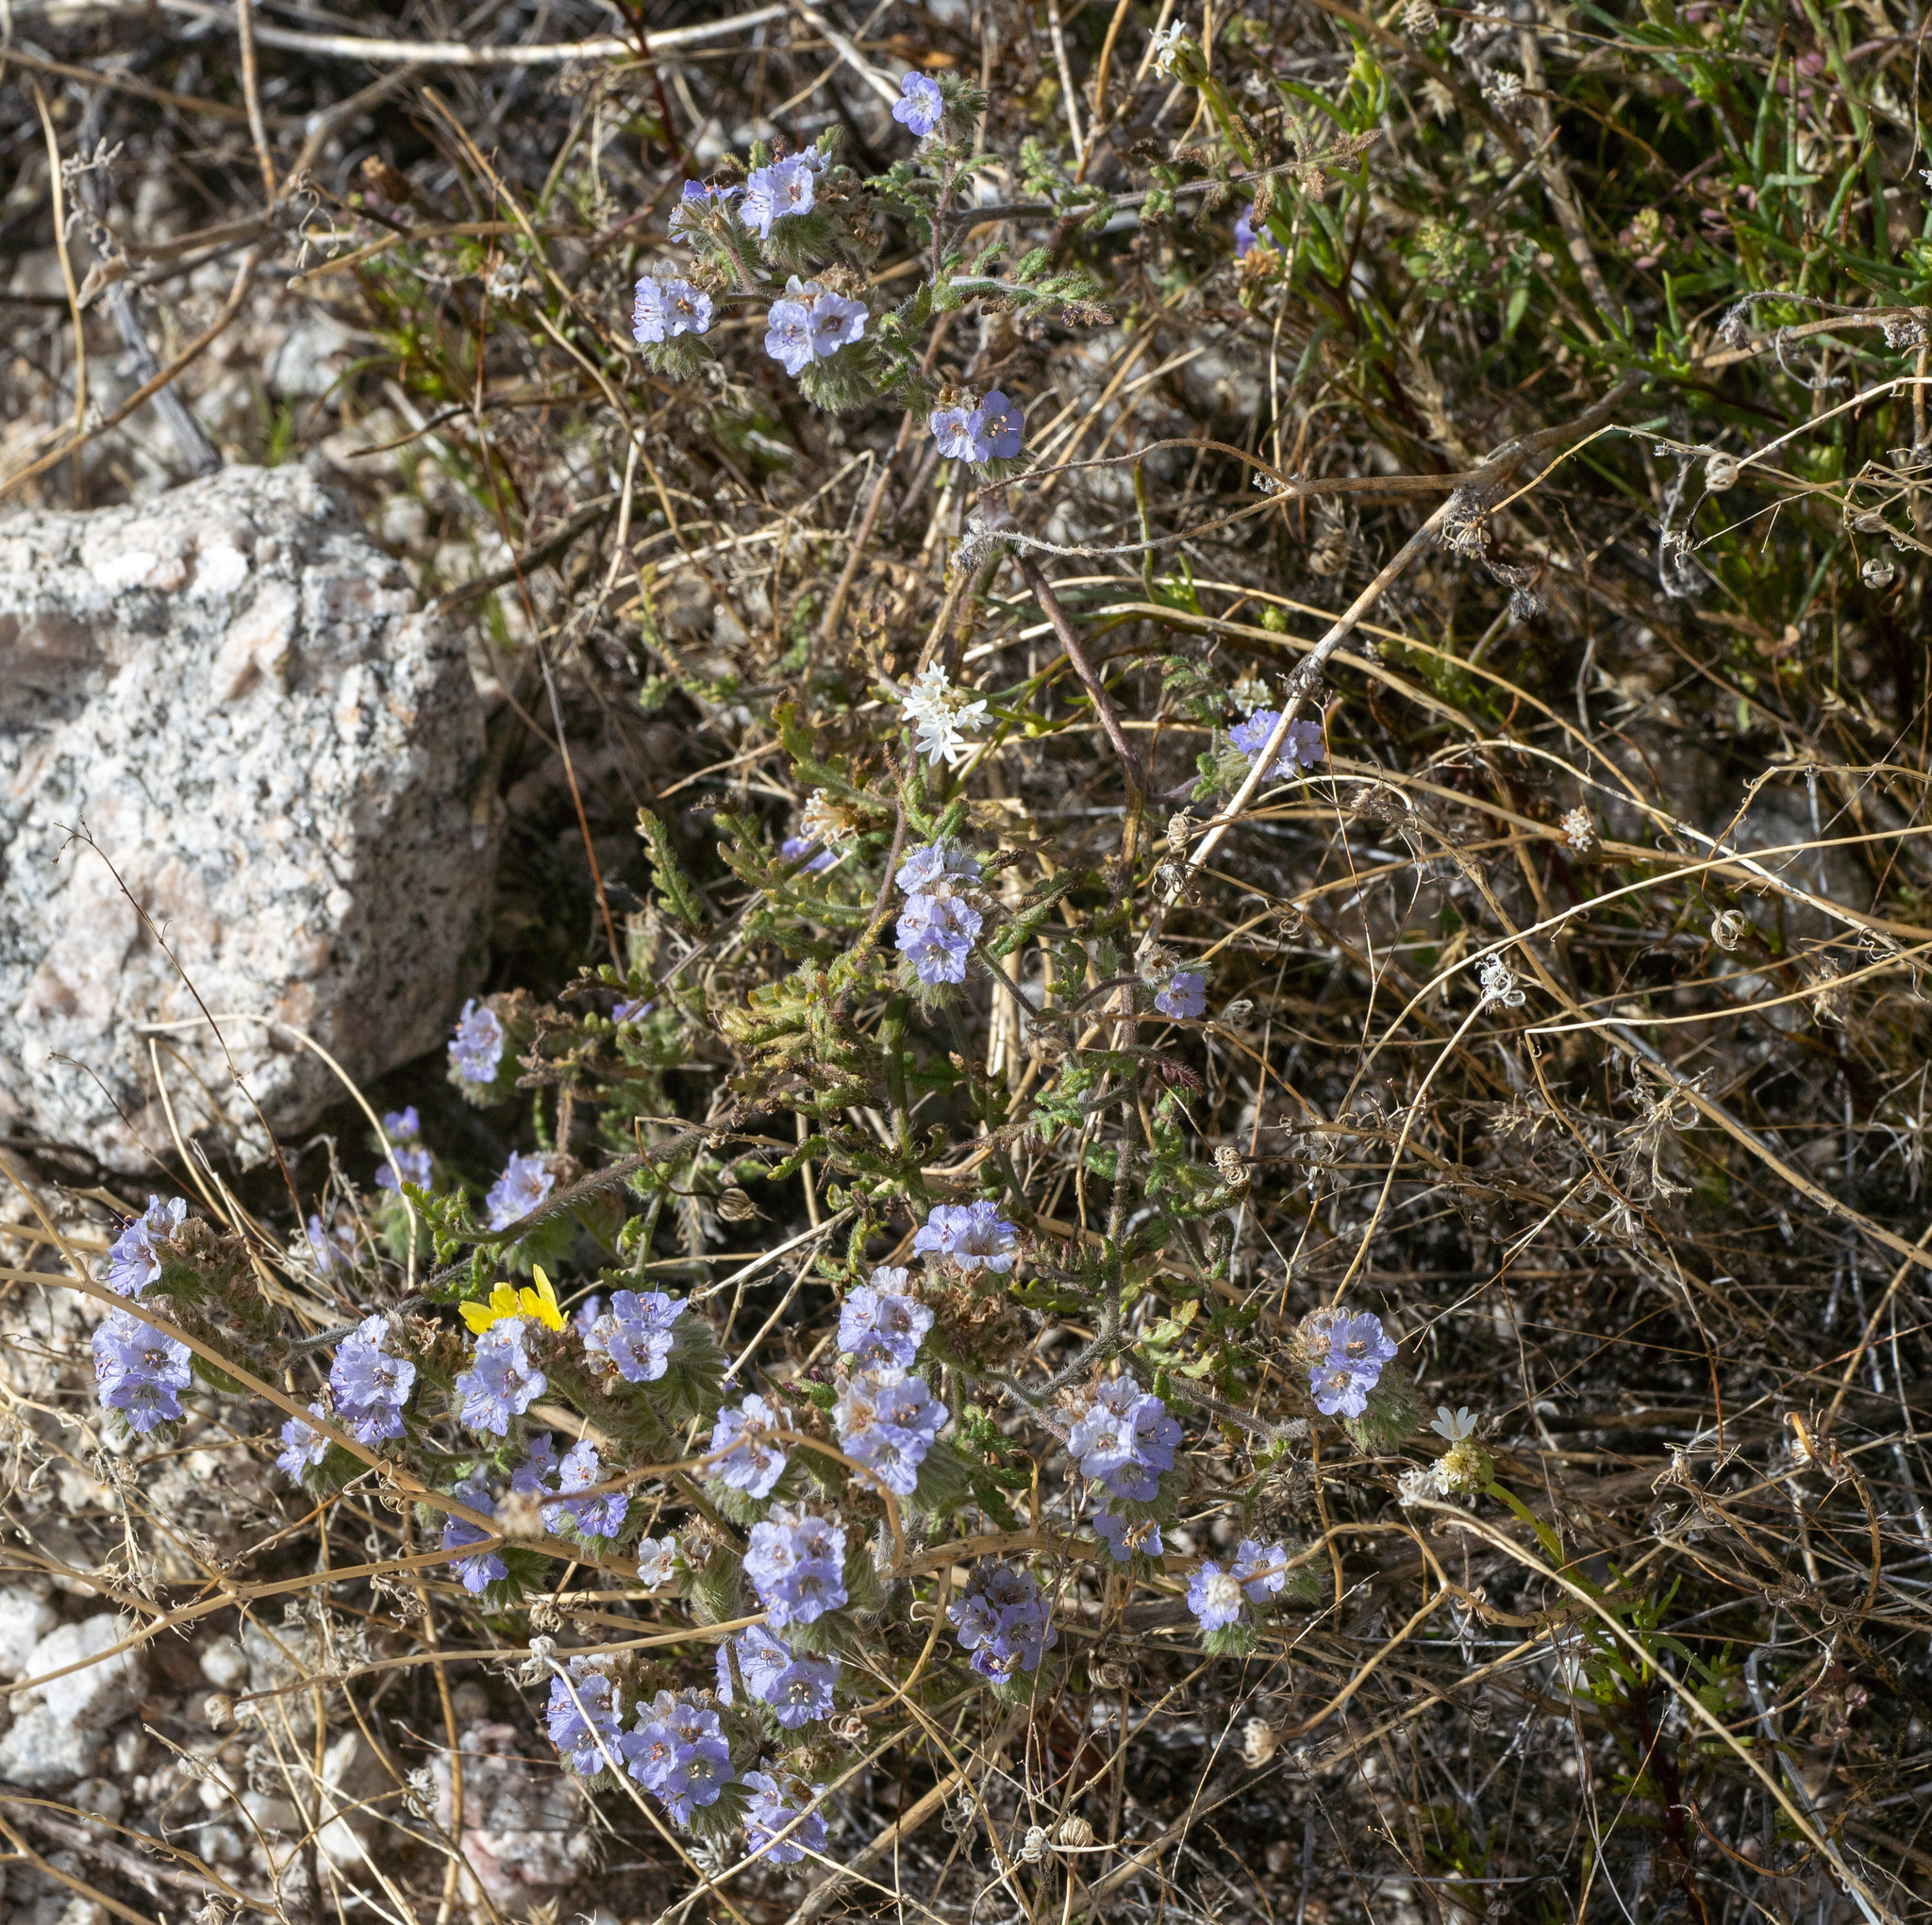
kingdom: Plantae
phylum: Tracheophyta
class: Magnoliopsida
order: Boraginales
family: Hydrophyllaceae
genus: Phacelia
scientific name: Phacelia distans
